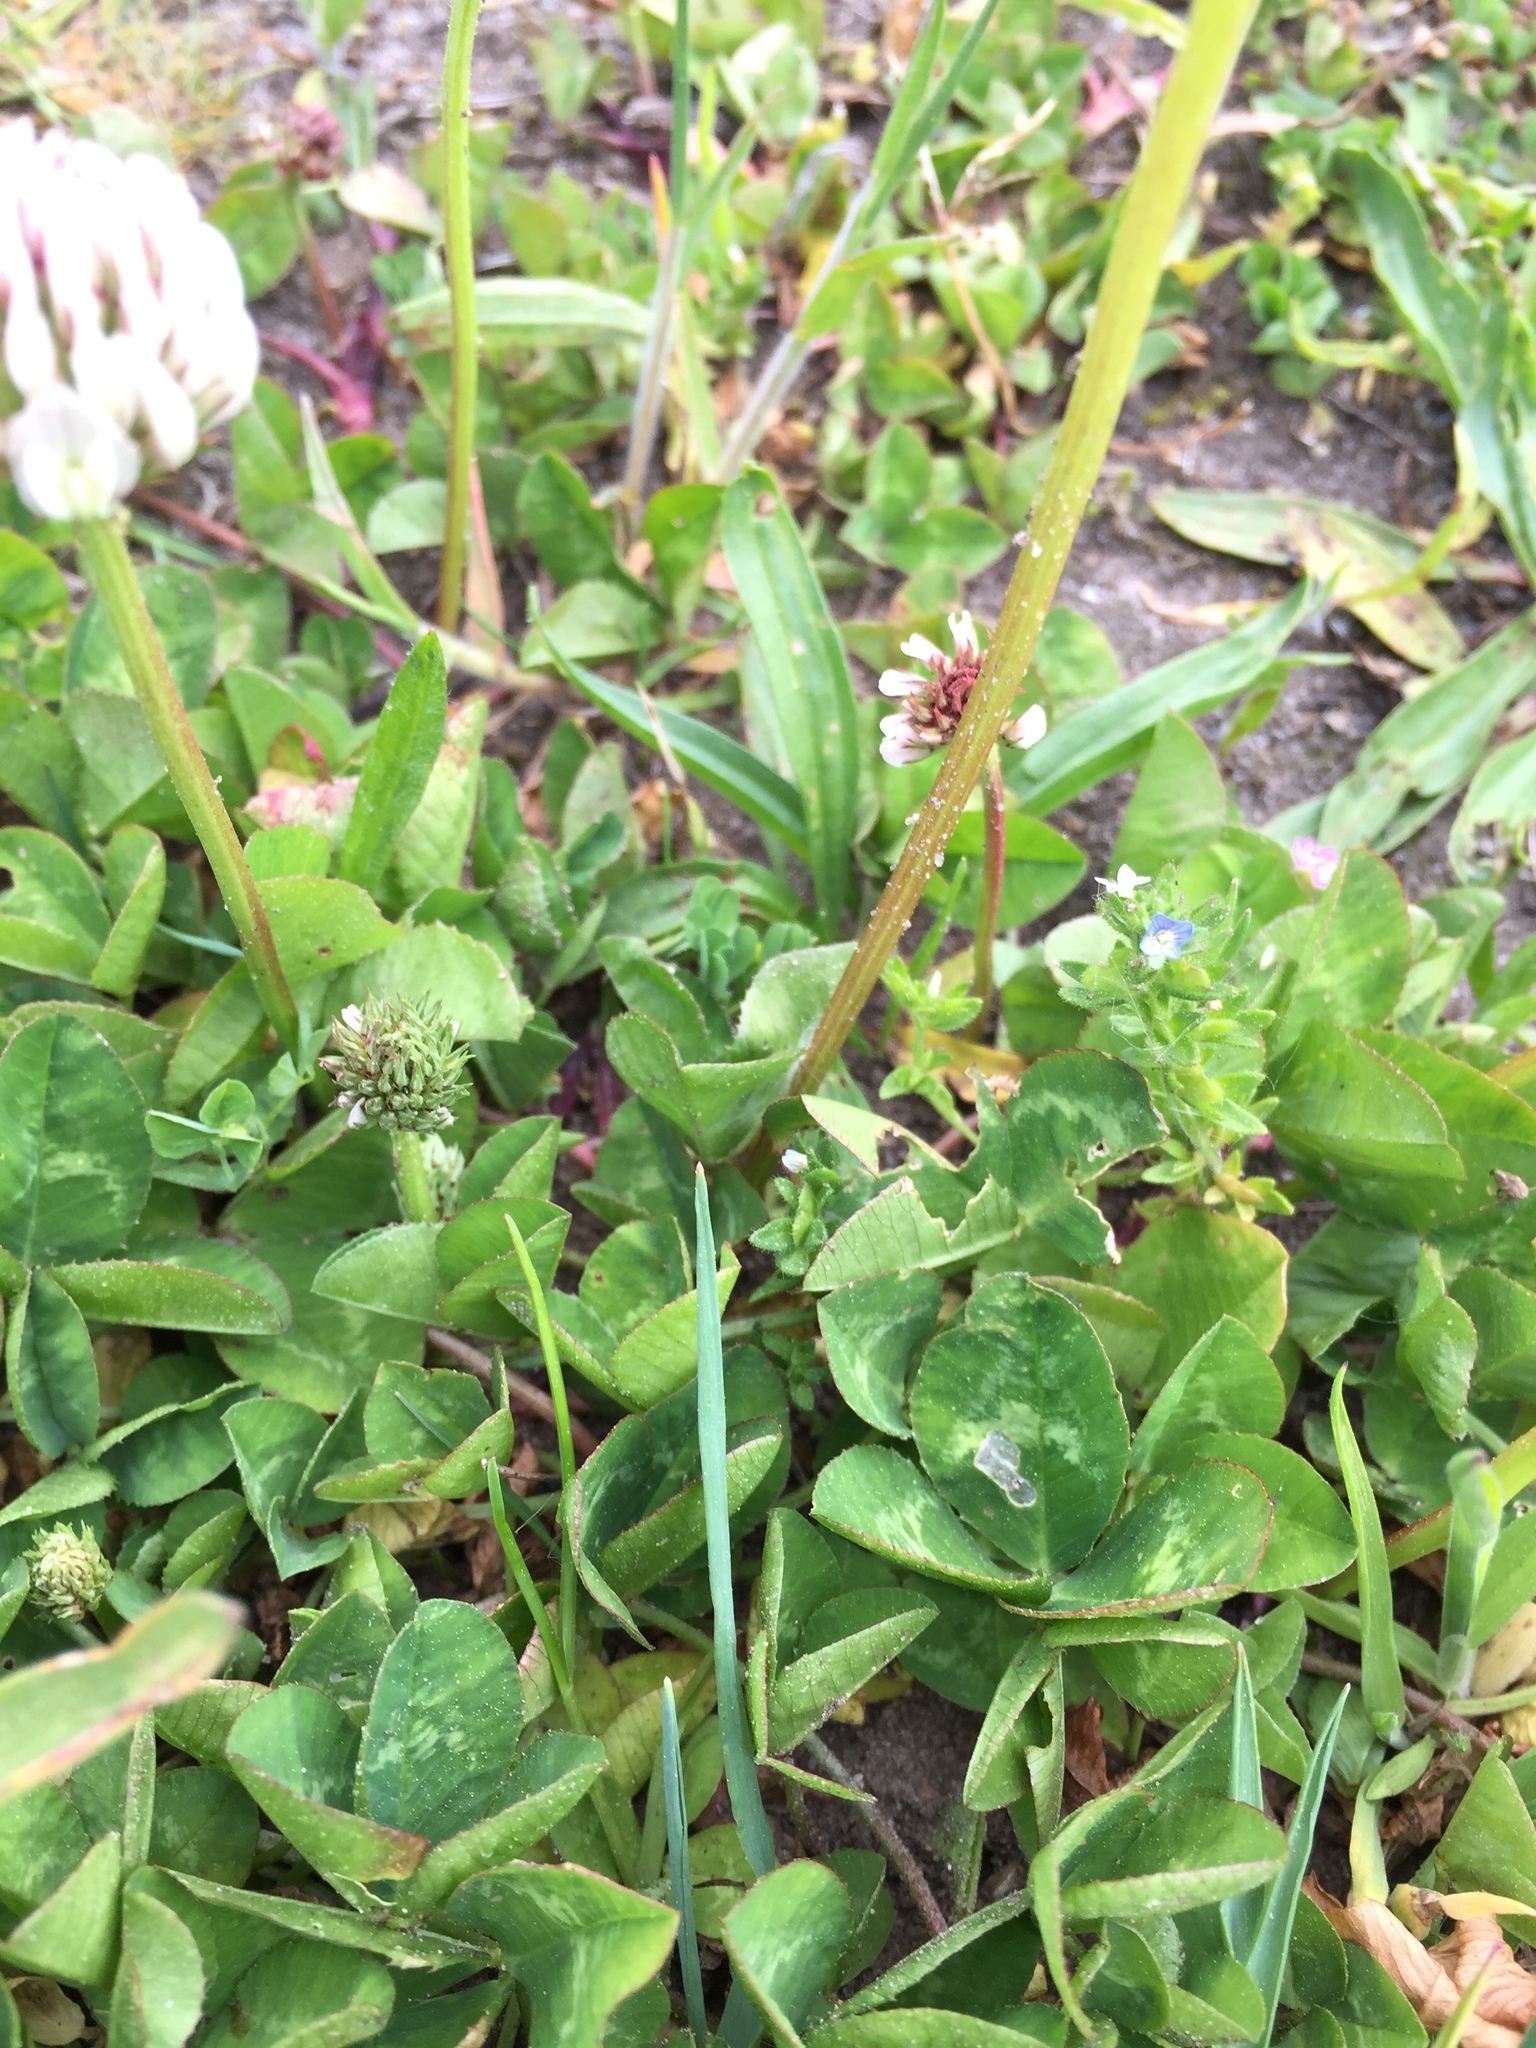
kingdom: Plantae
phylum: Tracheophyta
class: Magnoliopsida
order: Fabales
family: Fabaceae
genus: Trifolium
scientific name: Trifolium repens
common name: White clover
